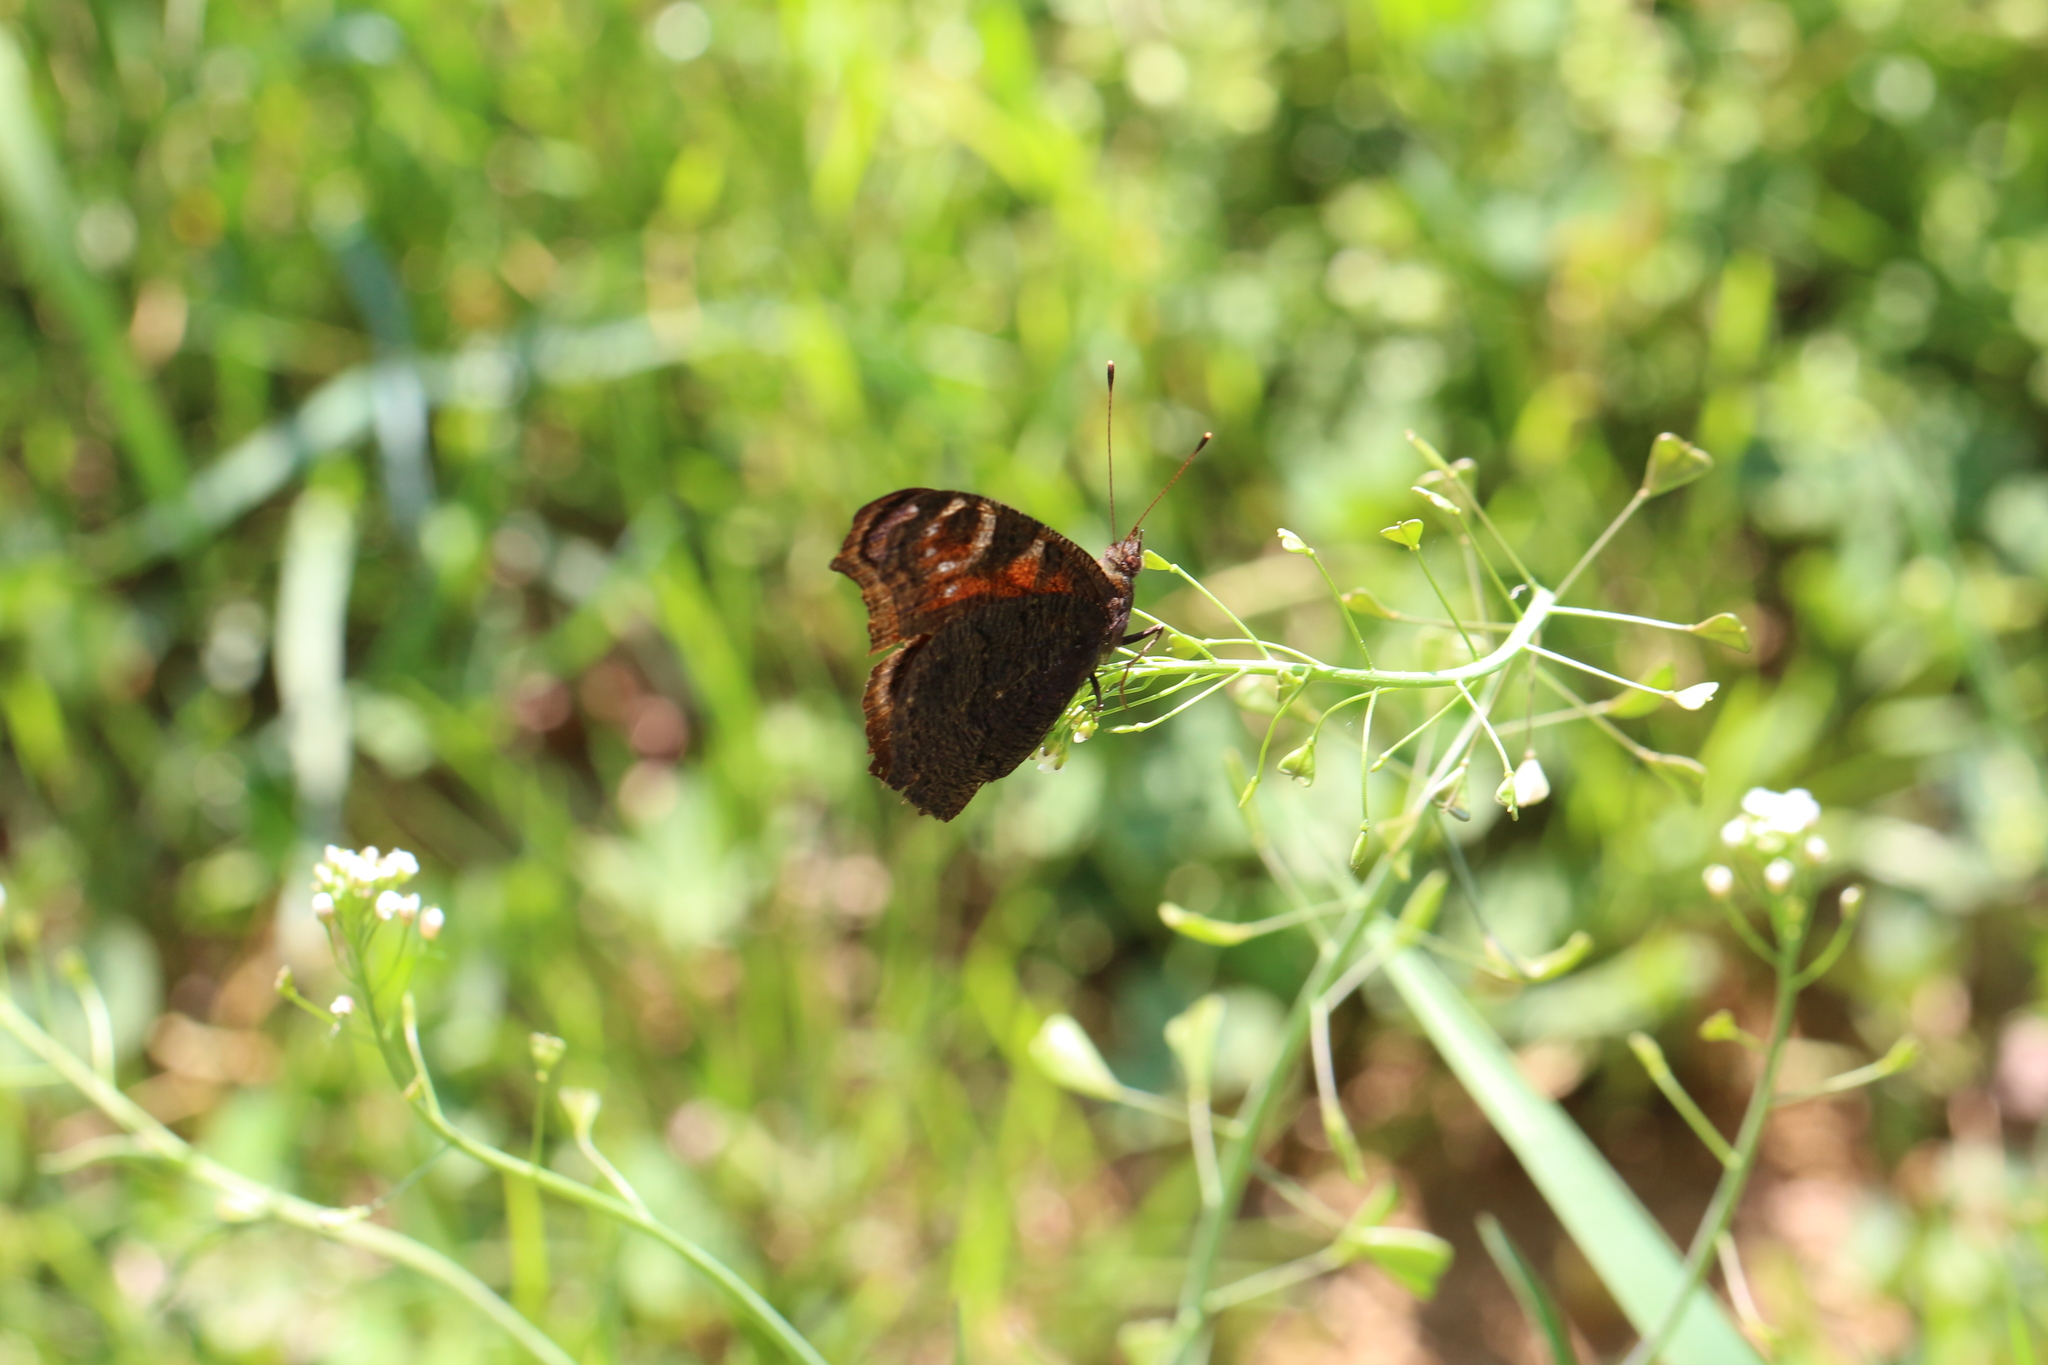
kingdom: Animalia
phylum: Arthropoda
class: Insecta
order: Lepidoptera
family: Nymphalidae
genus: Aglais
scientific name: Aglais io
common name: Peacock
